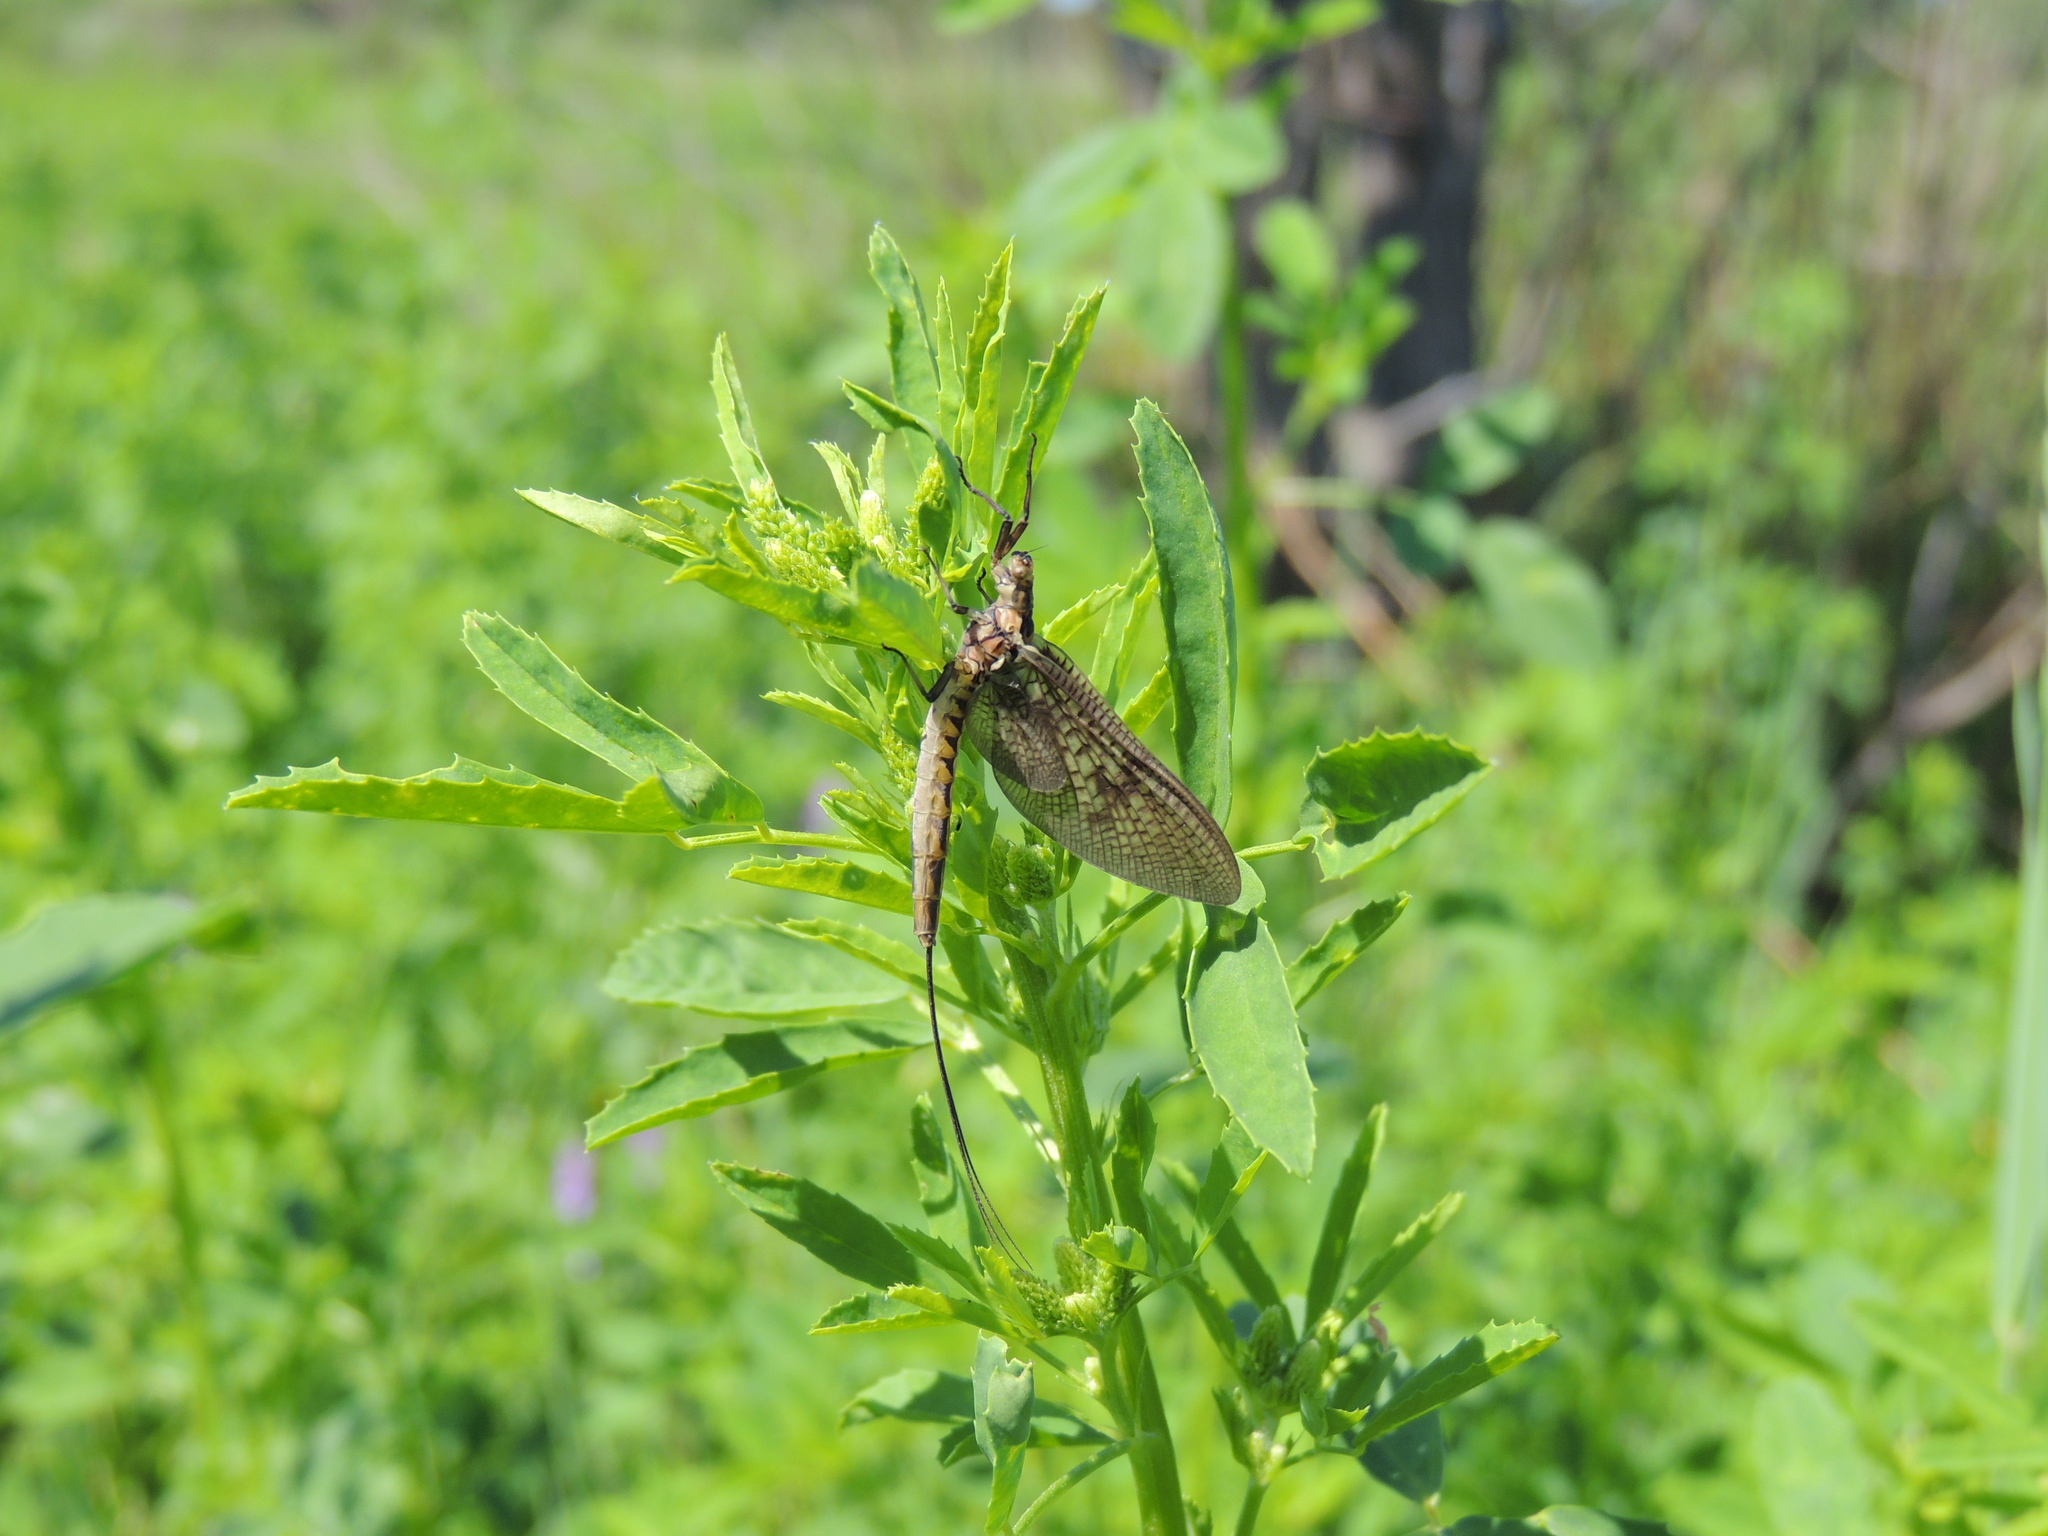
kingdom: Animalia
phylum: Arthropoda
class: Insecta
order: Ephemeroptera
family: Ephemeridae
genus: Ephemera
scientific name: Ephemera vulgata
